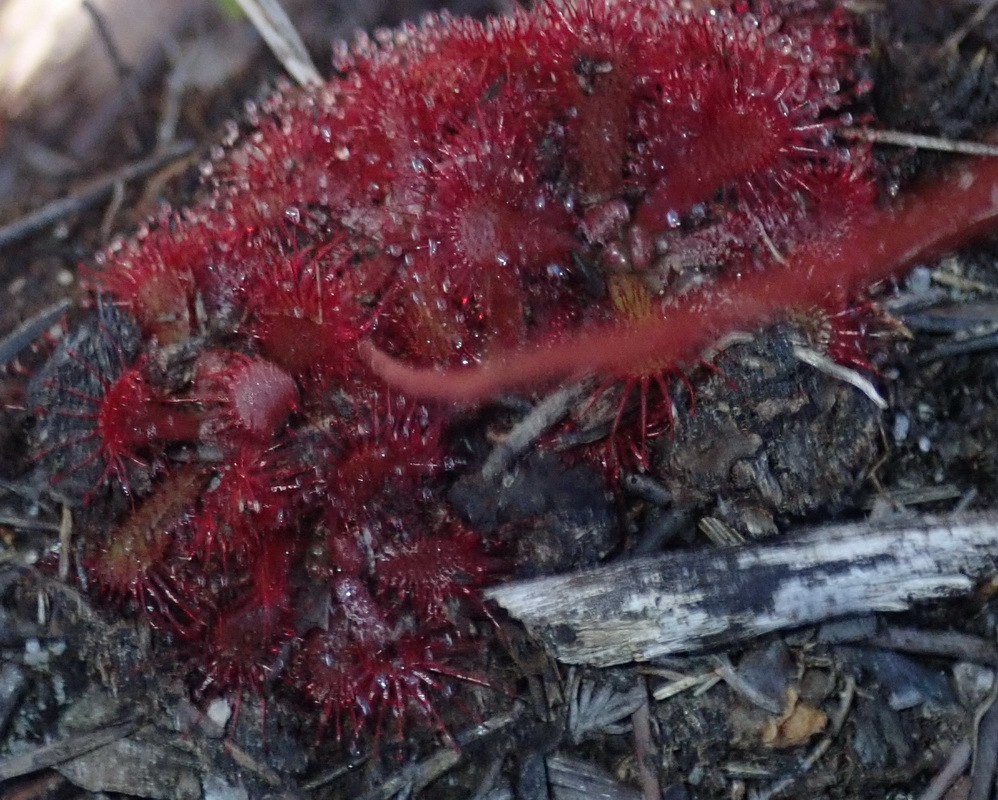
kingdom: Plantae
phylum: Tracheophyta
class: Magnoliopsida
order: Caryophyllales
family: Droseraceae
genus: Drosera
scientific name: Drosera aliciae
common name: Alice sundew
